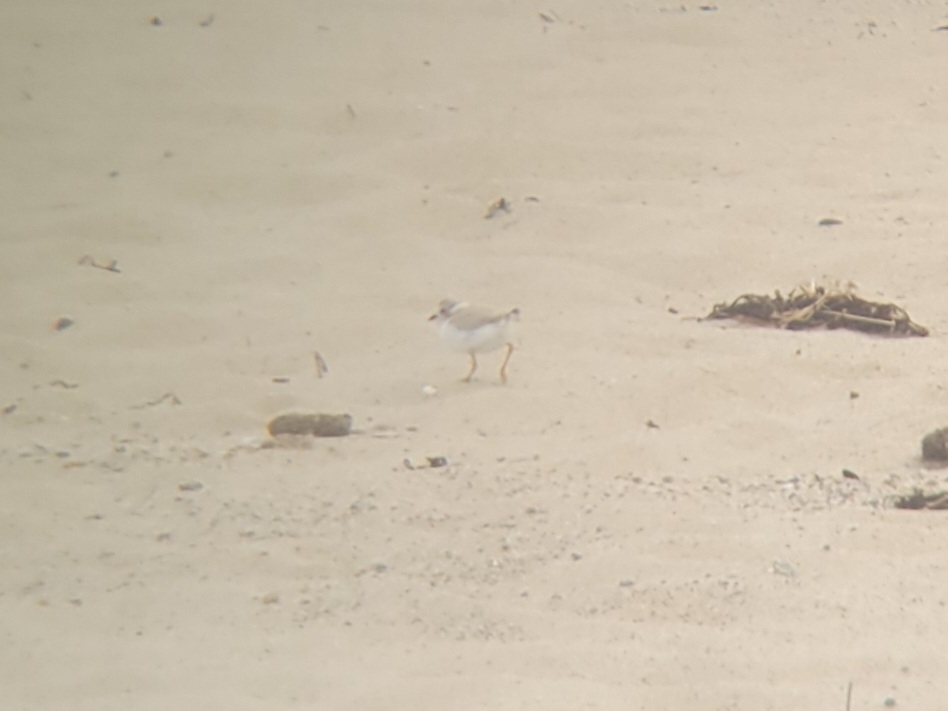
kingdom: Animalia
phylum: Chordata
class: Aves
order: Charadriiformes
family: Charadriidae
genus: Charadrius
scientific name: Charadrius melodus
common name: Piping plover
